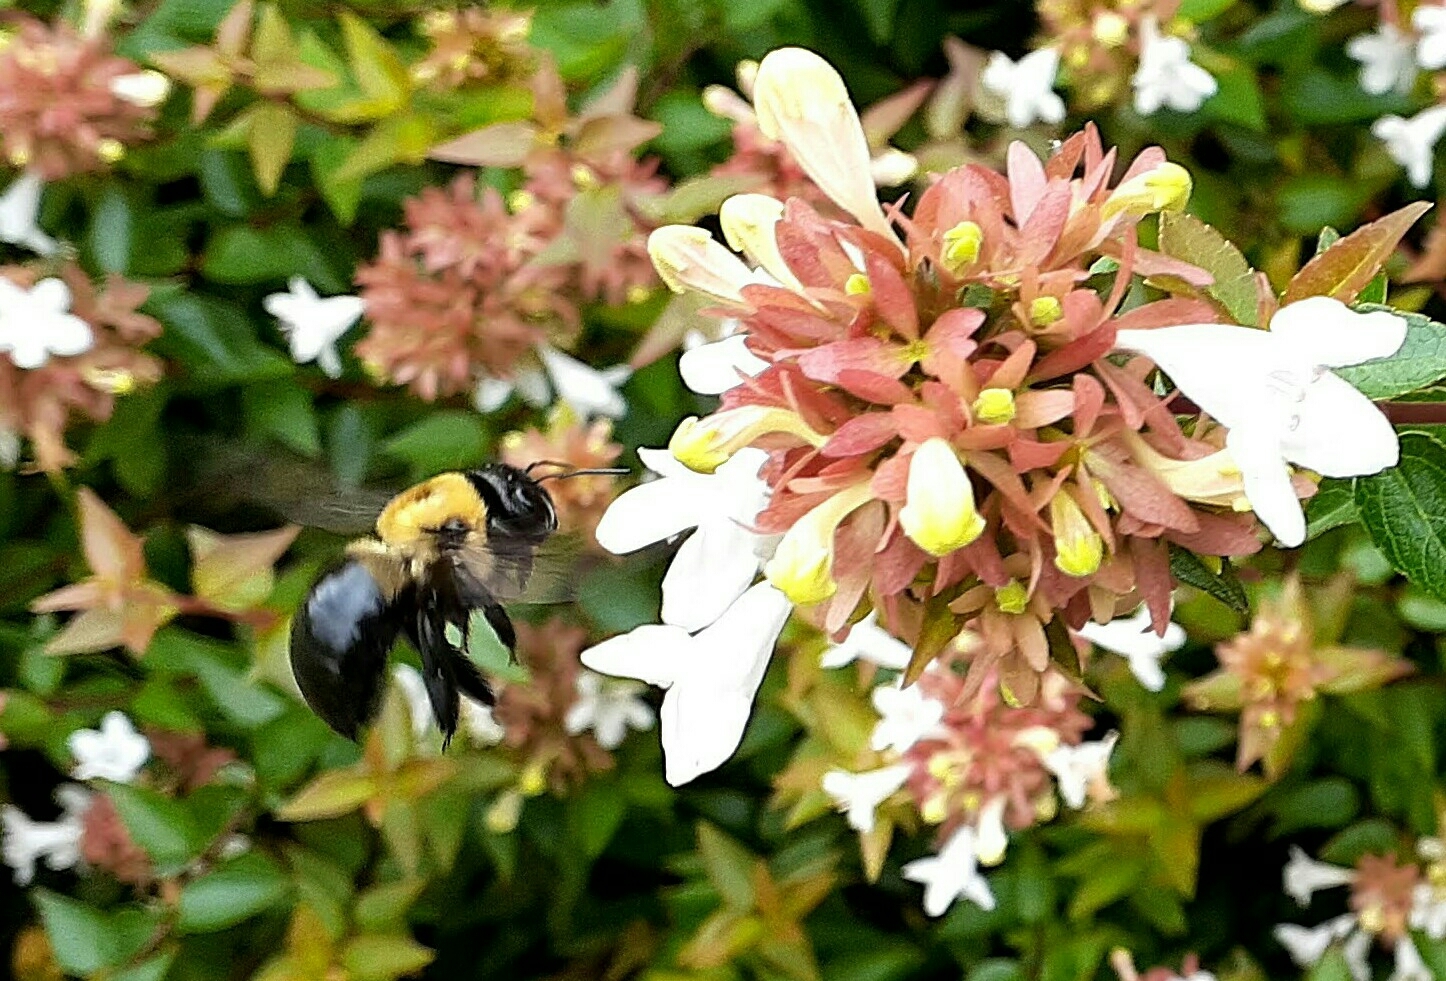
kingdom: Animalia
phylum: Arthropoda
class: Insecta
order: Hymenoptera
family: Apidae
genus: Xylocopa
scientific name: Xylocopa virginica
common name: Carpenter bee
